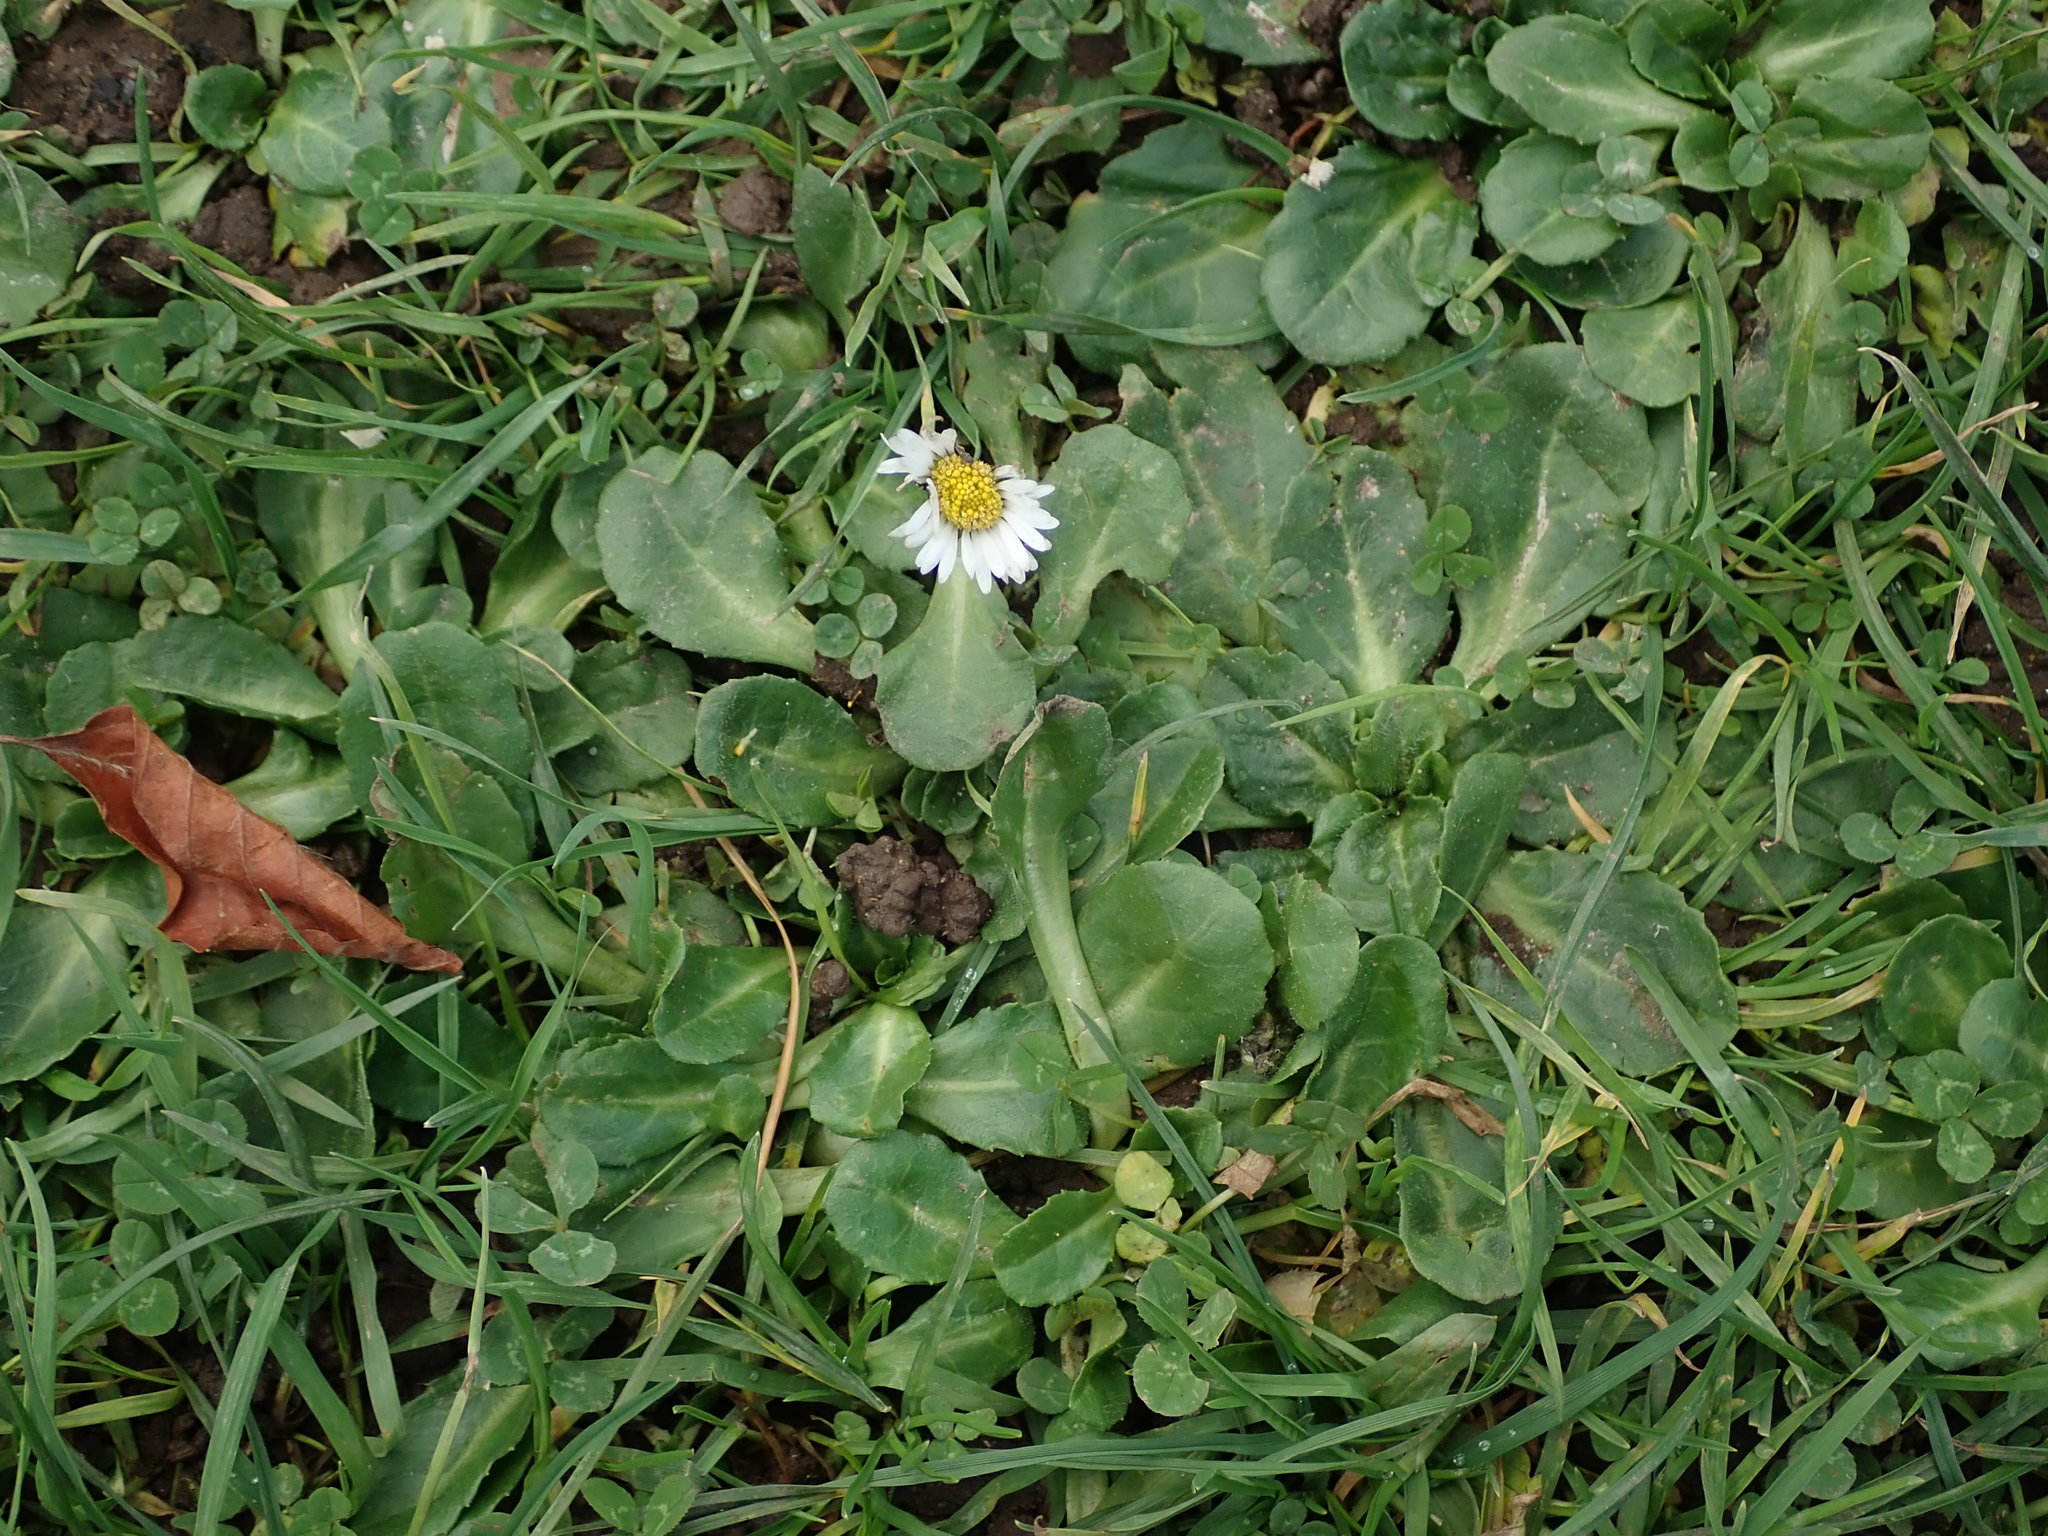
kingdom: Plantae
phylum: Tracheophyta
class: Magnoliopsida
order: Asterales
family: Asteraceae
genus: Bellis
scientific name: Bellis perennis
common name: Lawndaisy
